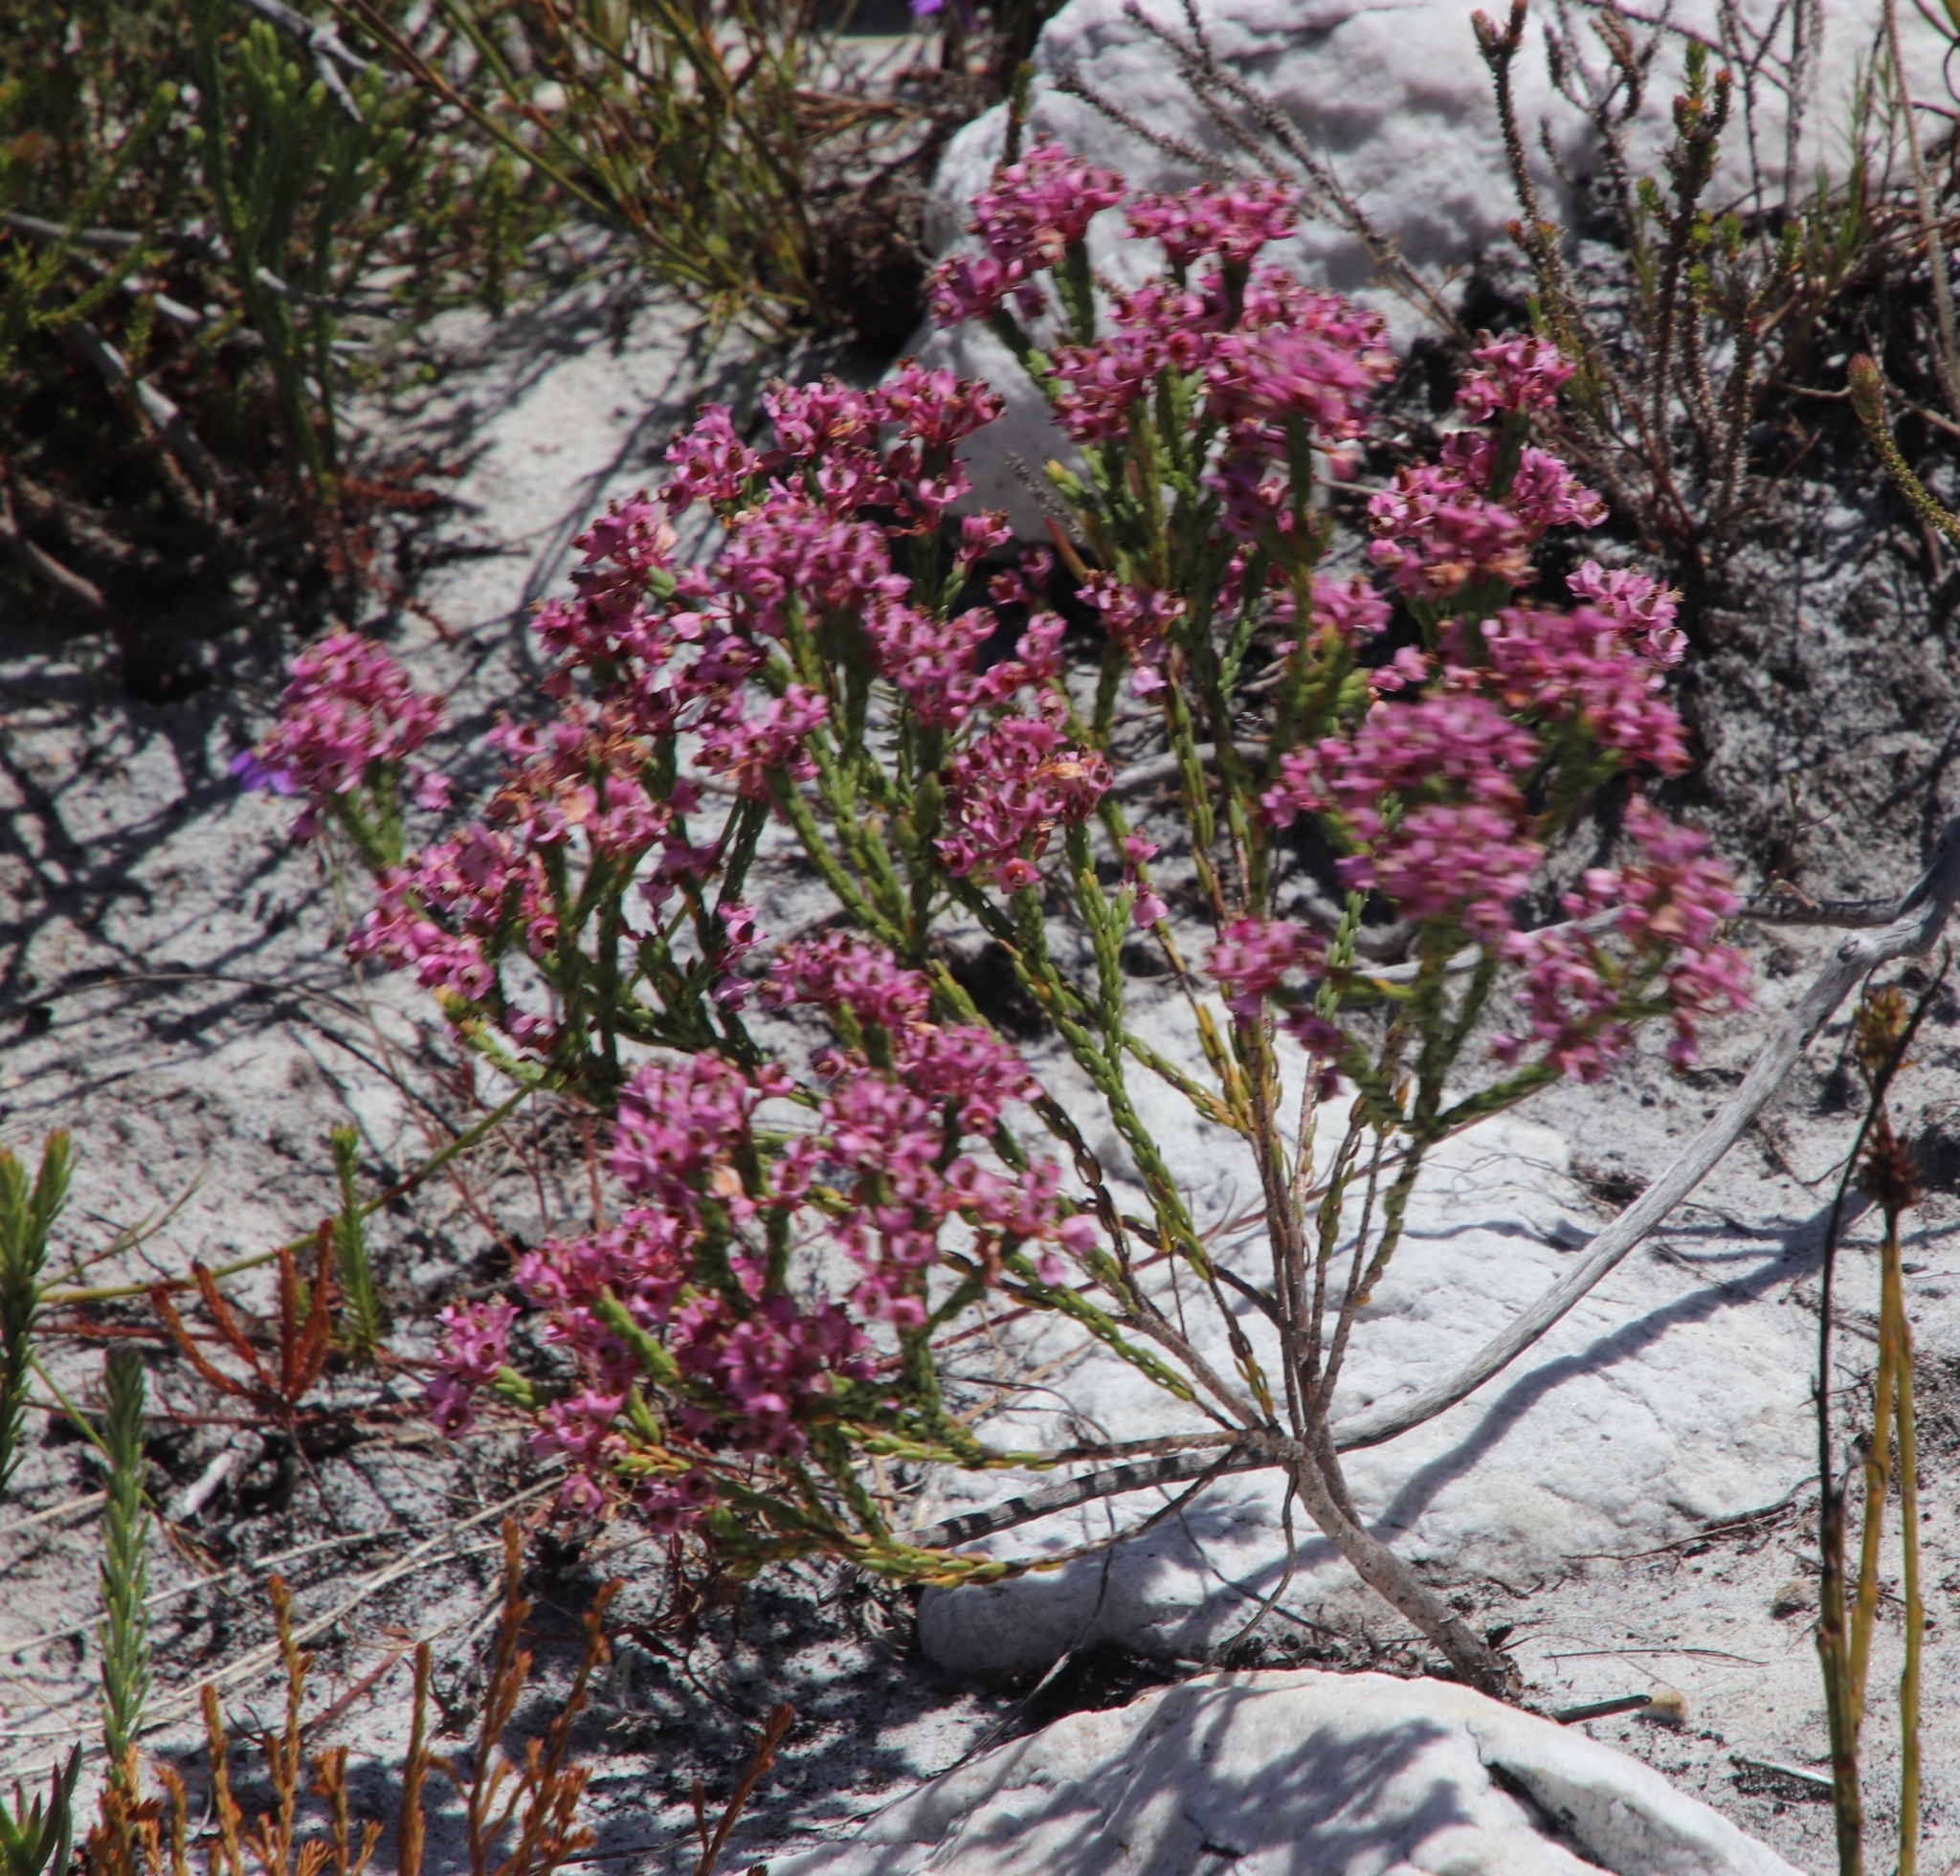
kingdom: Plantae
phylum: Tracheophyta
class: Magnoliopsida
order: Ericales
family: Ericaceae
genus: Erica
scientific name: Erica corifolia
